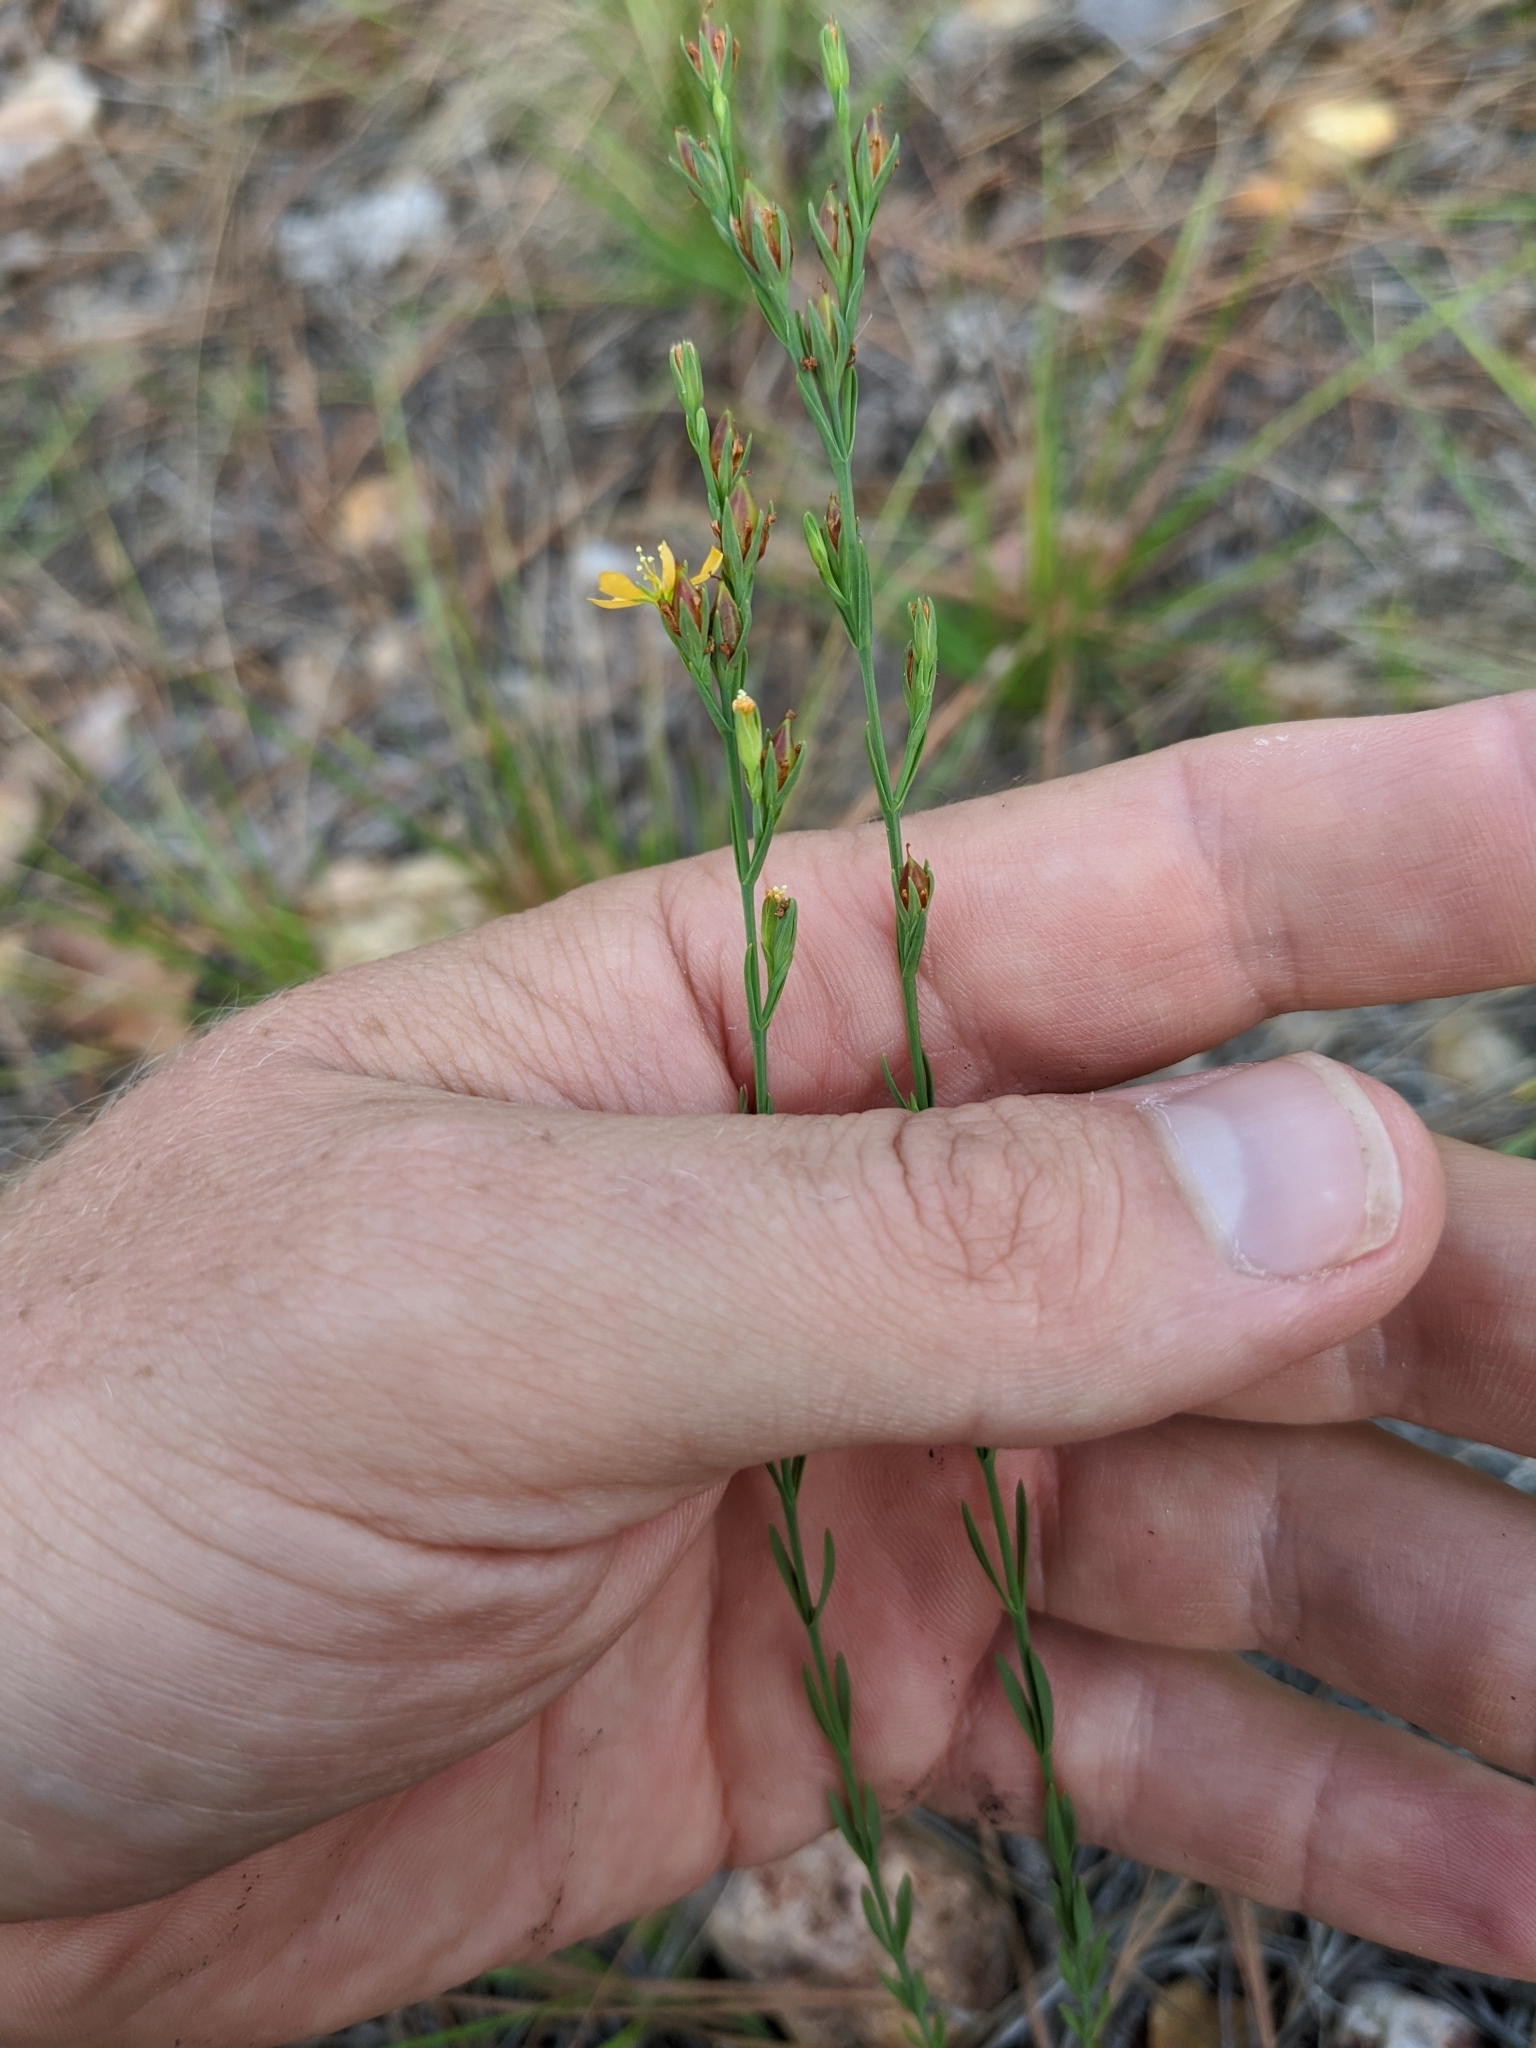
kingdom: Plantae
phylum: Tracheophyta
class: Magnoliopsida
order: Malpighiales
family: Hypericaceae
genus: Hypericum
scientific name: Hypericum gentianoides
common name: Gentian-leaved st. john's-wort
